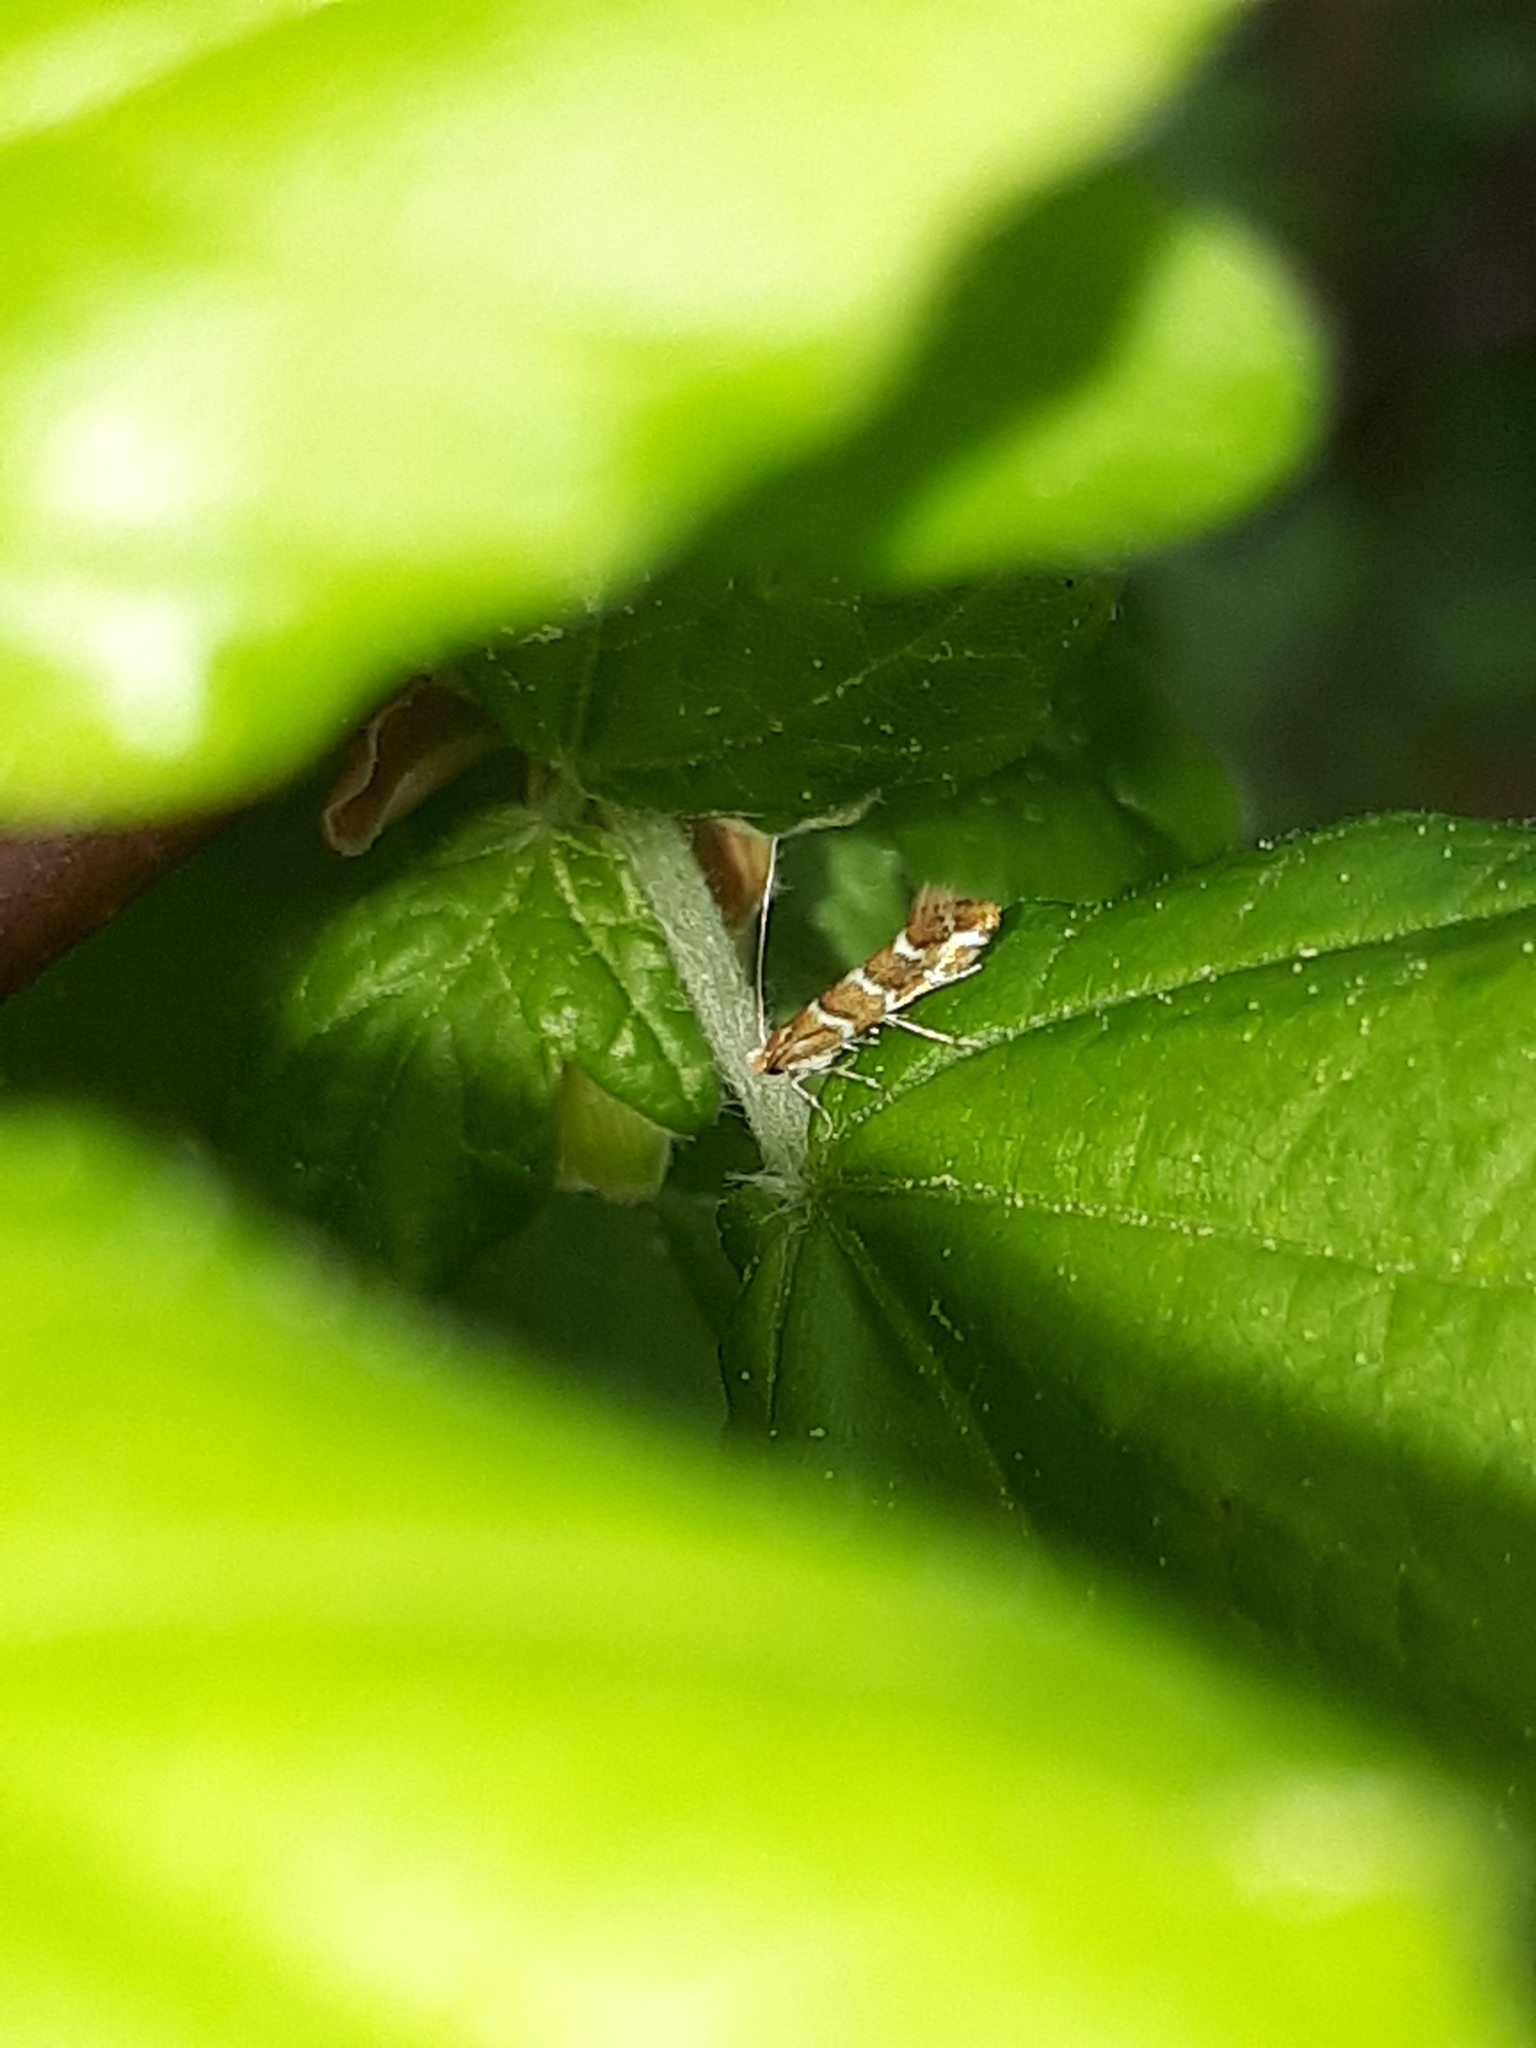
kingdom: Animalia
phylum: Arthropoda
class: Insecta
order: Lepidoptera
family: Gracillariidae
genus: Cameraria
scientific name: Cameraria ohridella
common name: Horse-chestnut leaf-miner
